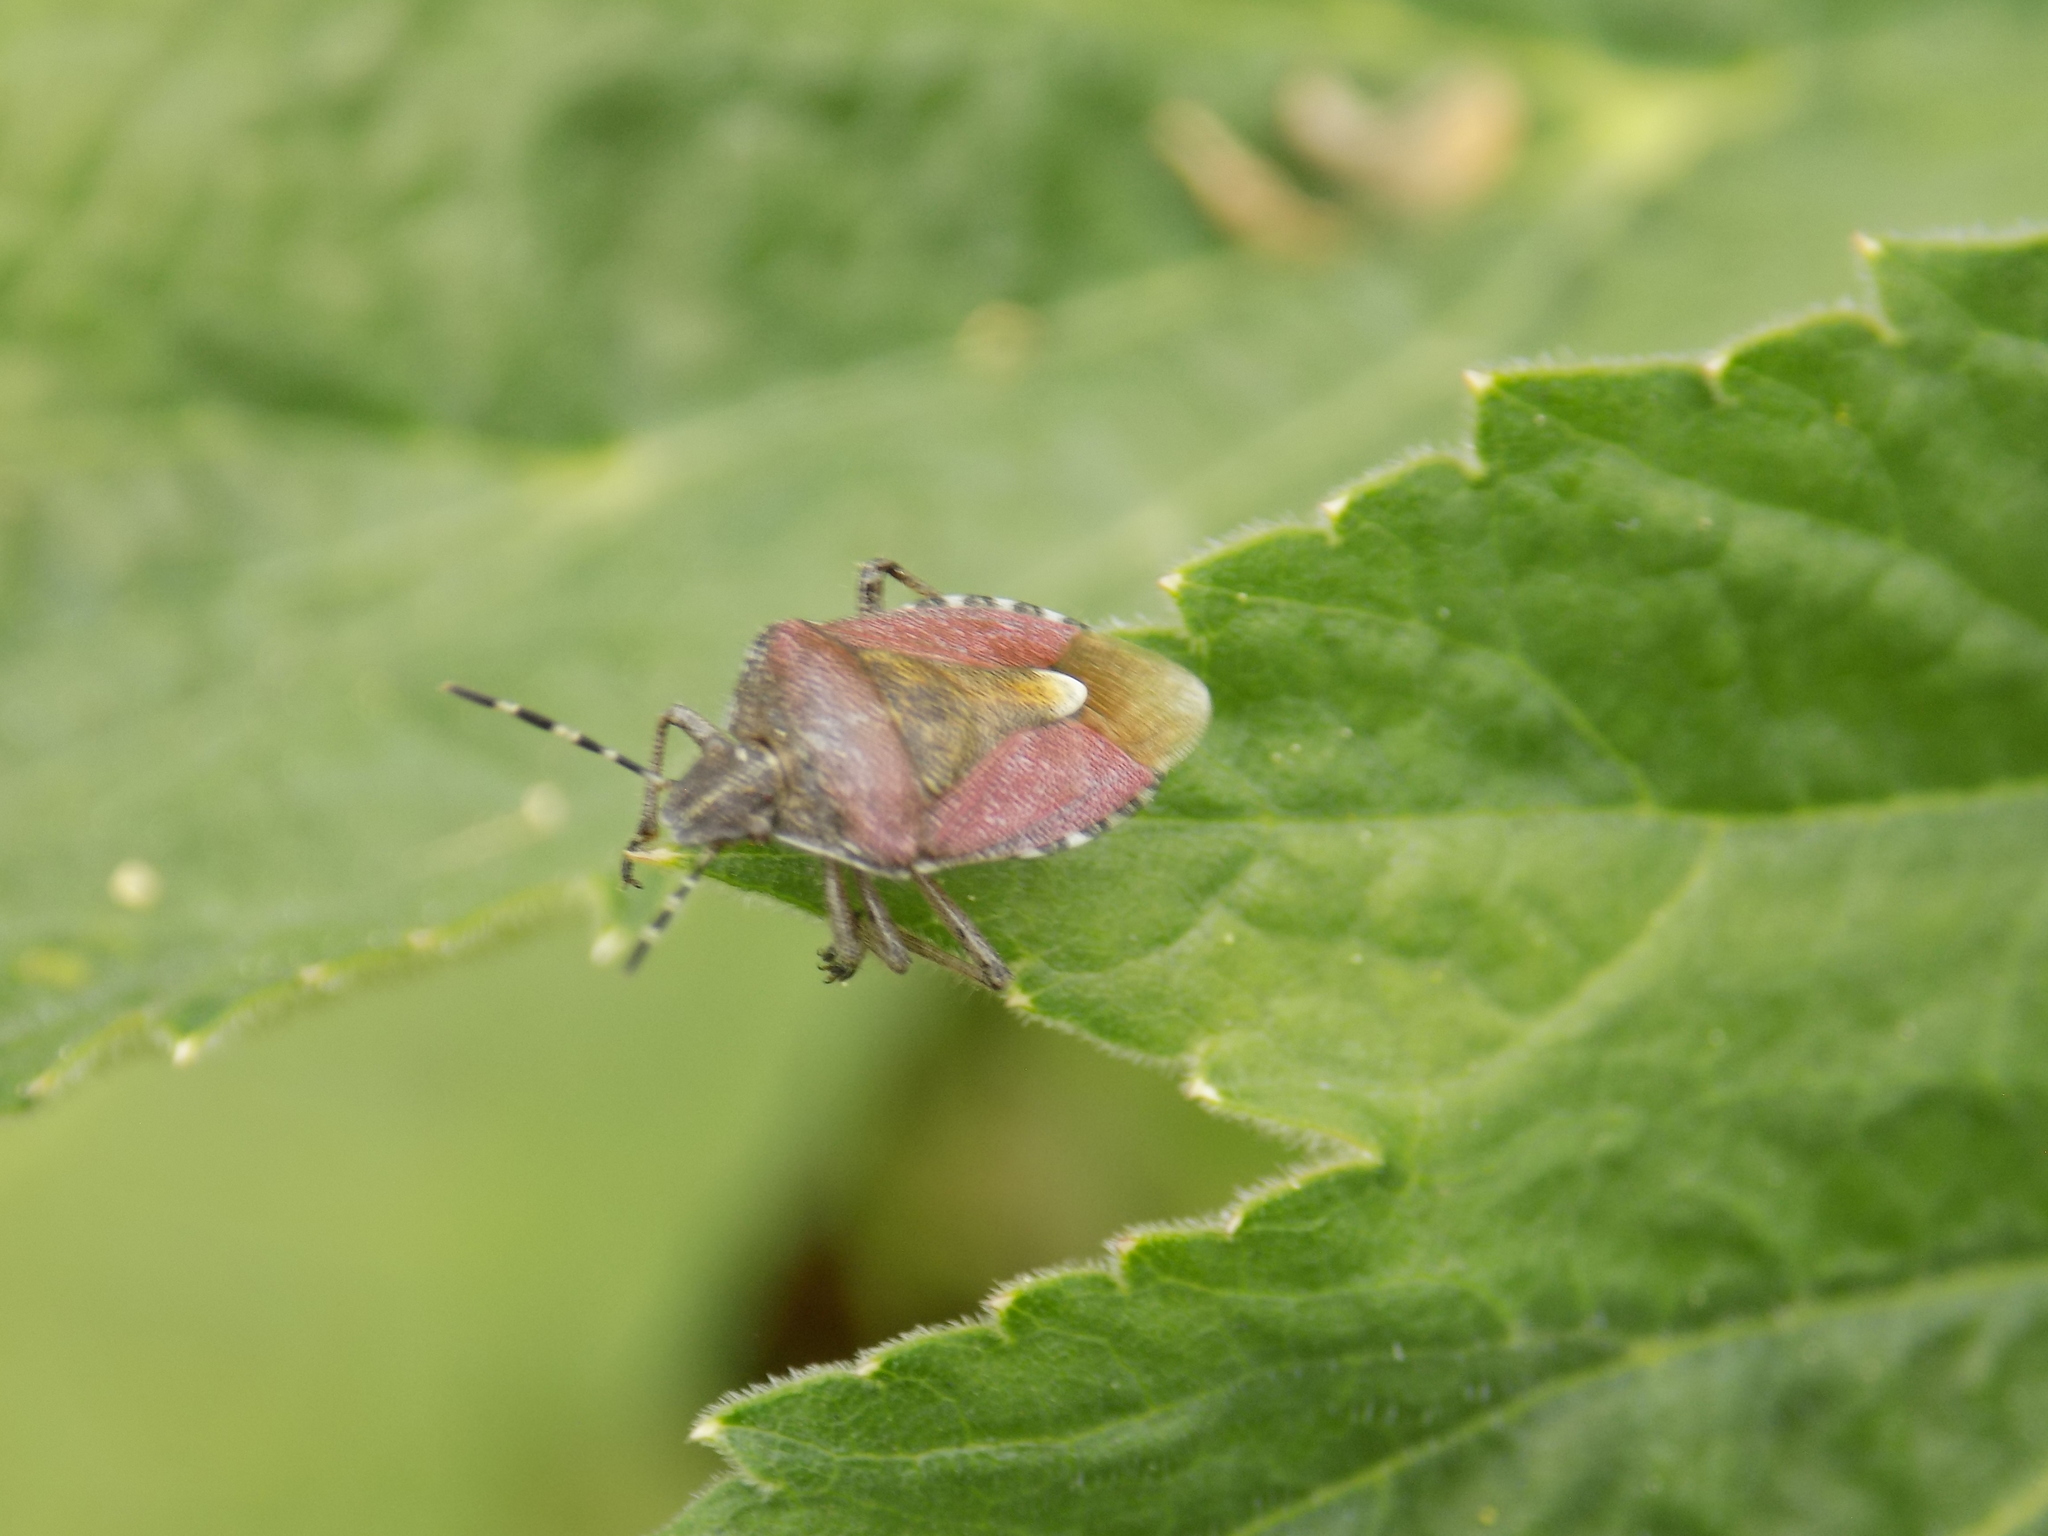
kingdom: Animalia
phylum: Arthropoda
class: Insecta
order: Hemiptera
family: Pentatomidae
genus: Dolycoris
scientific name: Dolycoris baccarum
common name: Sloe bug
